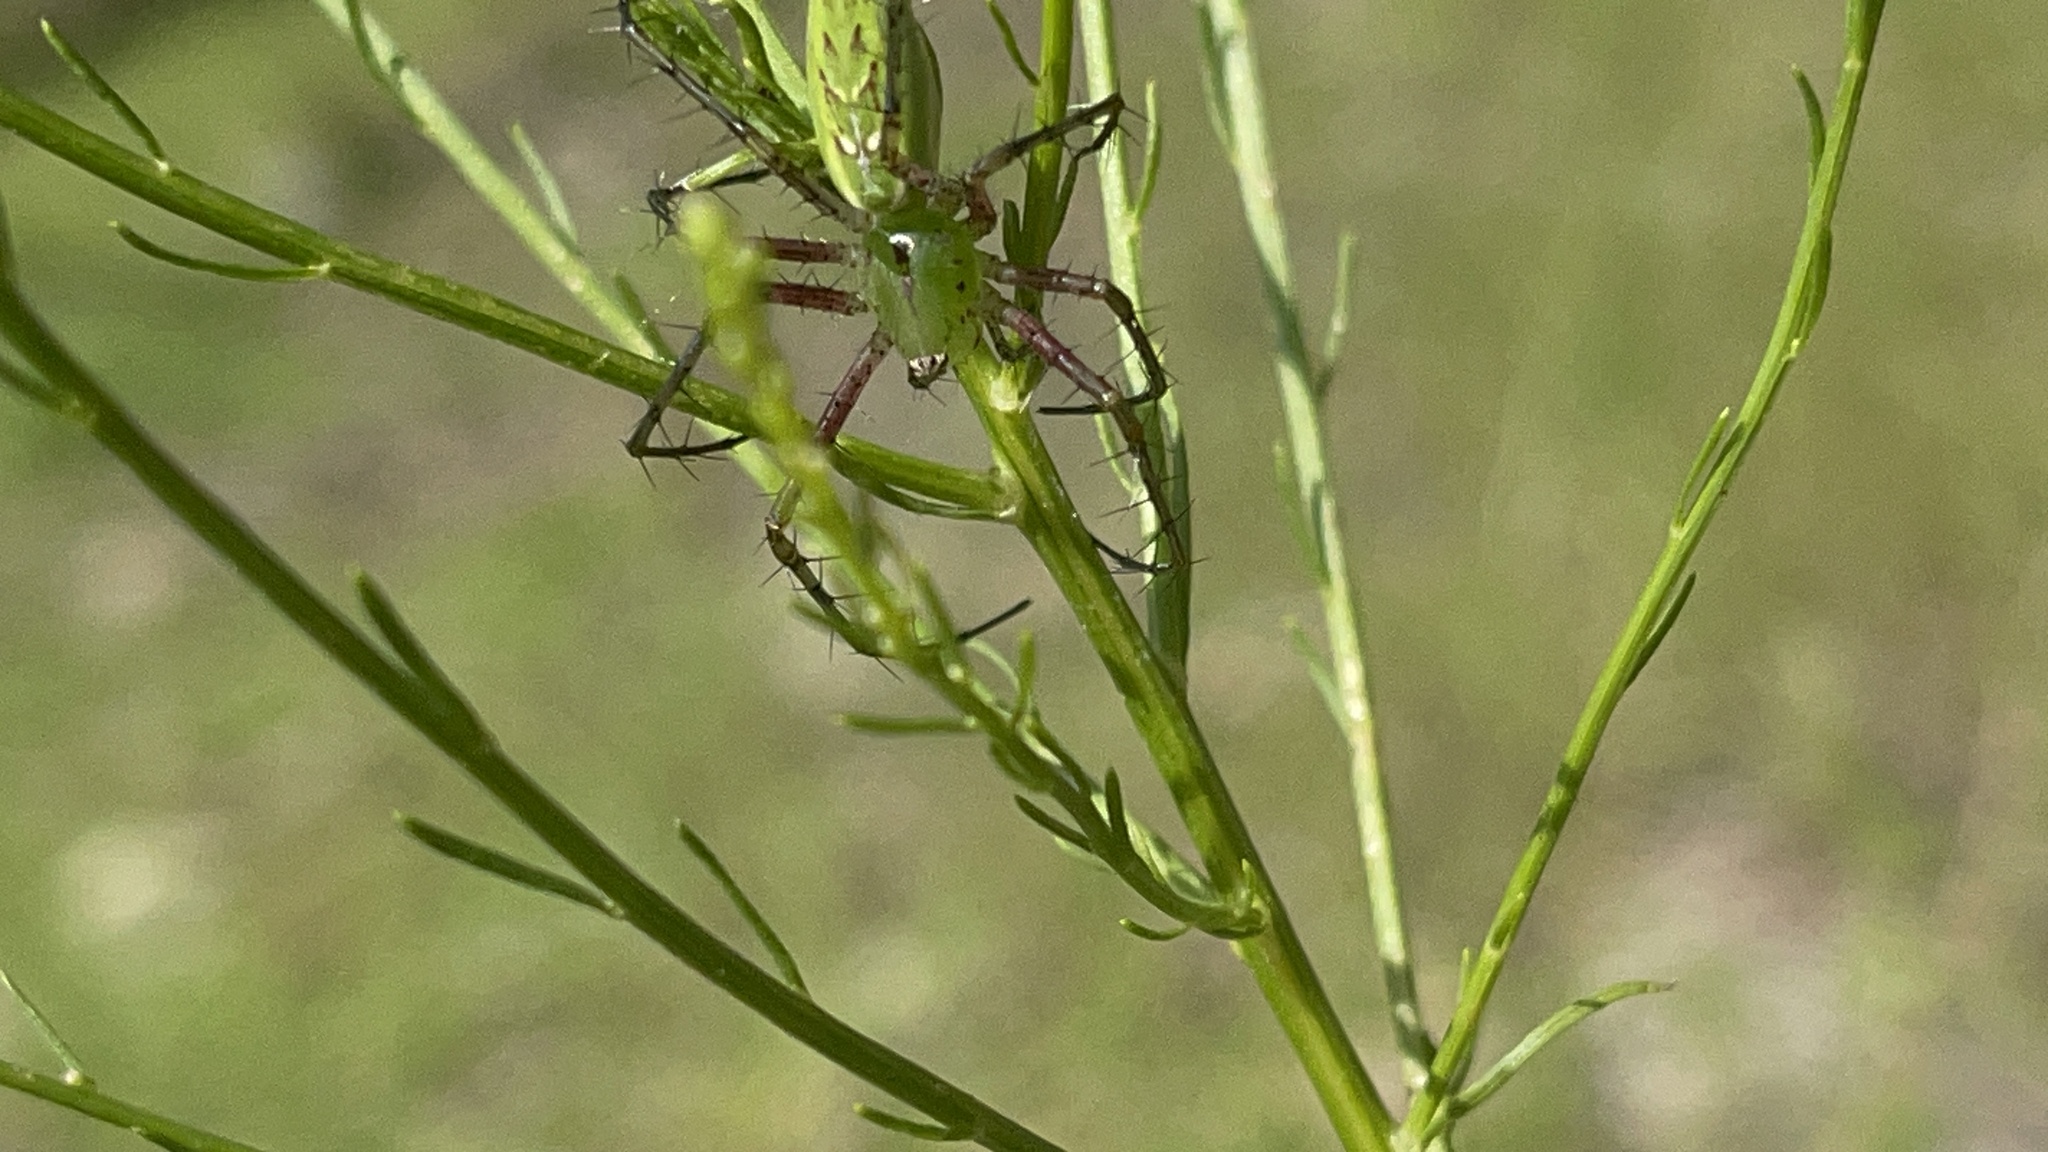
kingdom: Animalia
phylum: Arthropoda
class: Arachnida
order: Araneae
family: Oxyopidae
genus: Peucetia
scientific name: Peucetia viridans
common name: Lynx spiders
